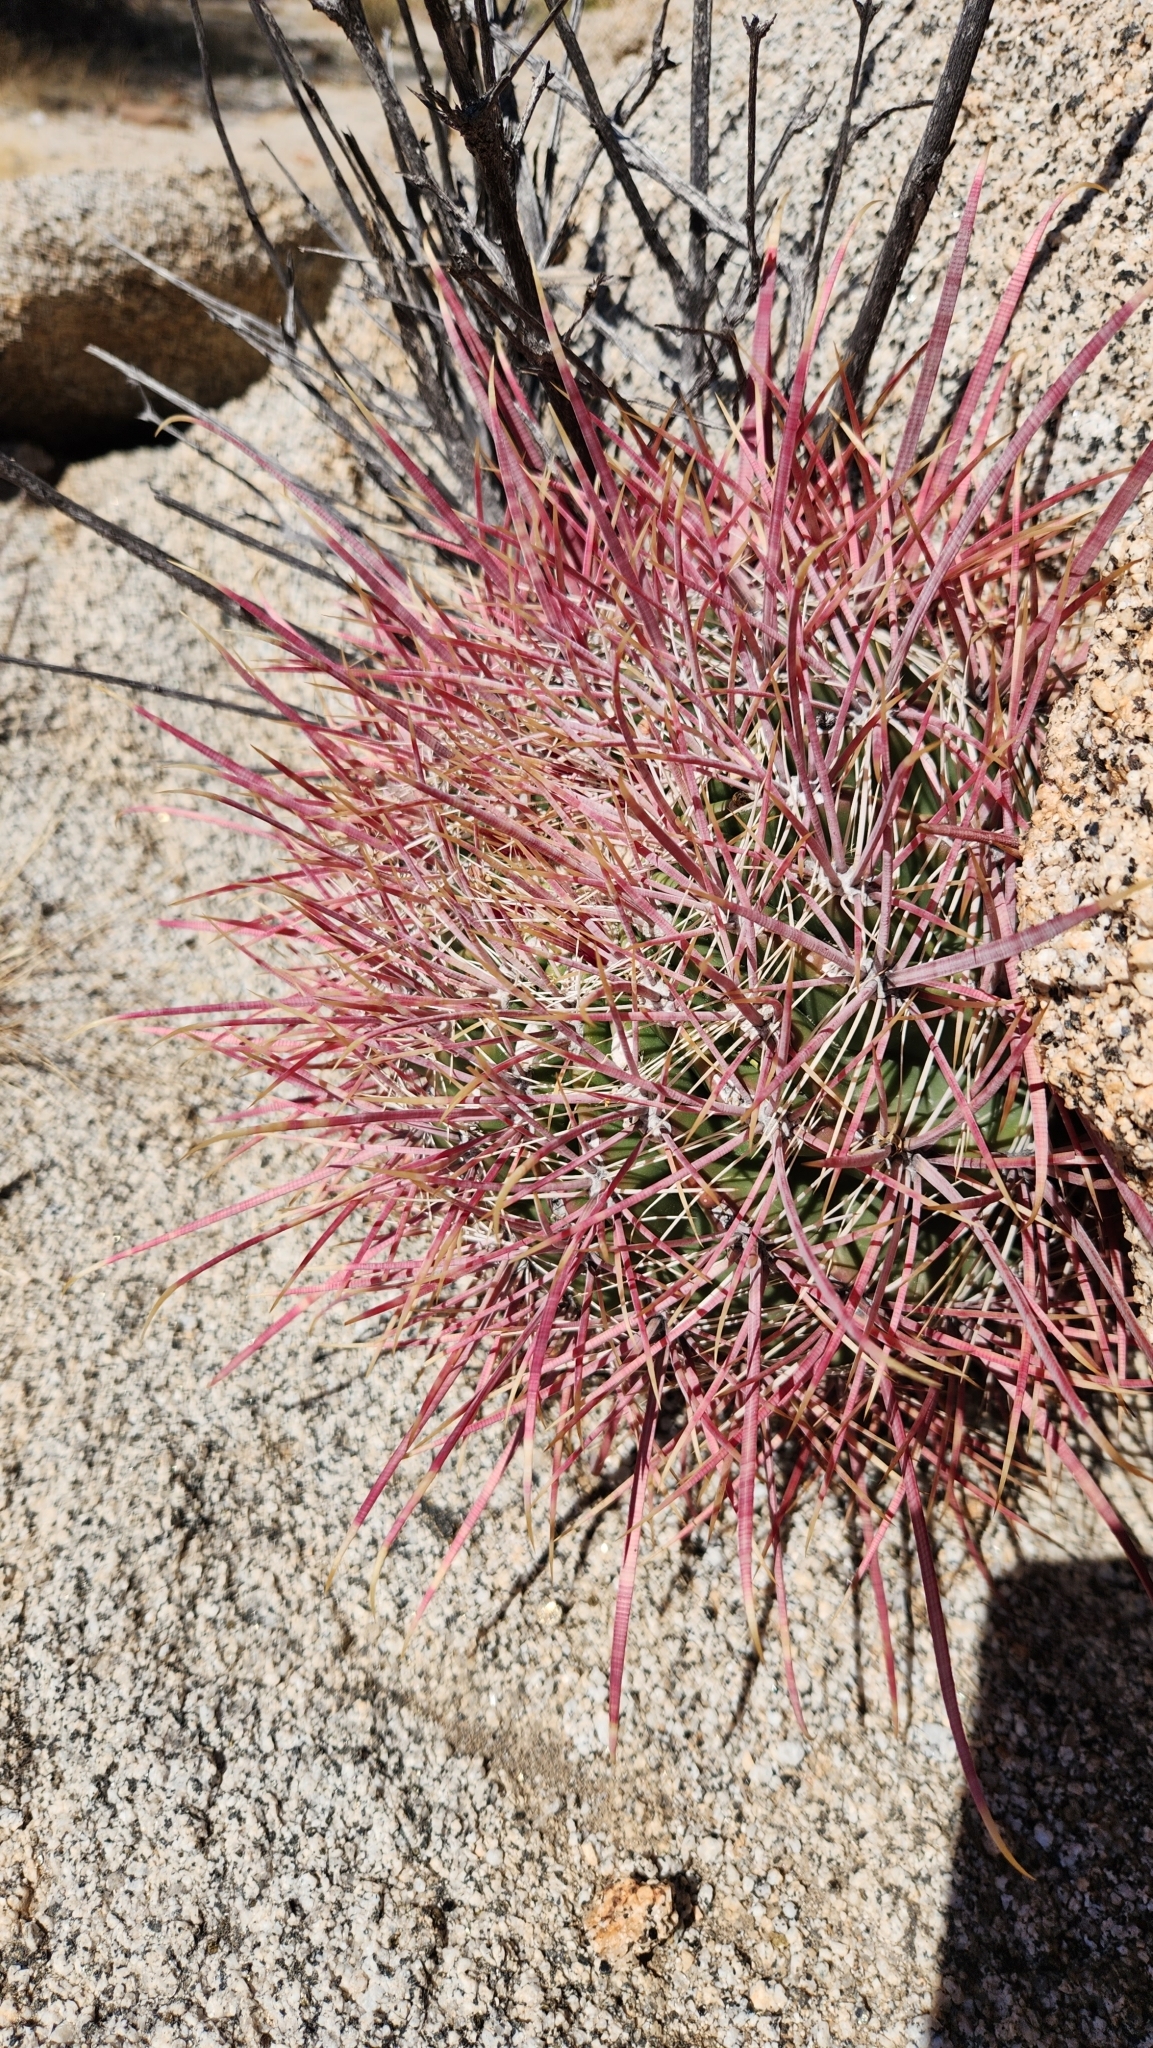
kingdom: Plantae
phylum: Tracheophyta
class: Magnoliopsida
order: Caryophyllales
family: Cactaceae
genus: Ferocactus
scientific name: Ferocactus cylindraceus
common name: California barrel cactus
